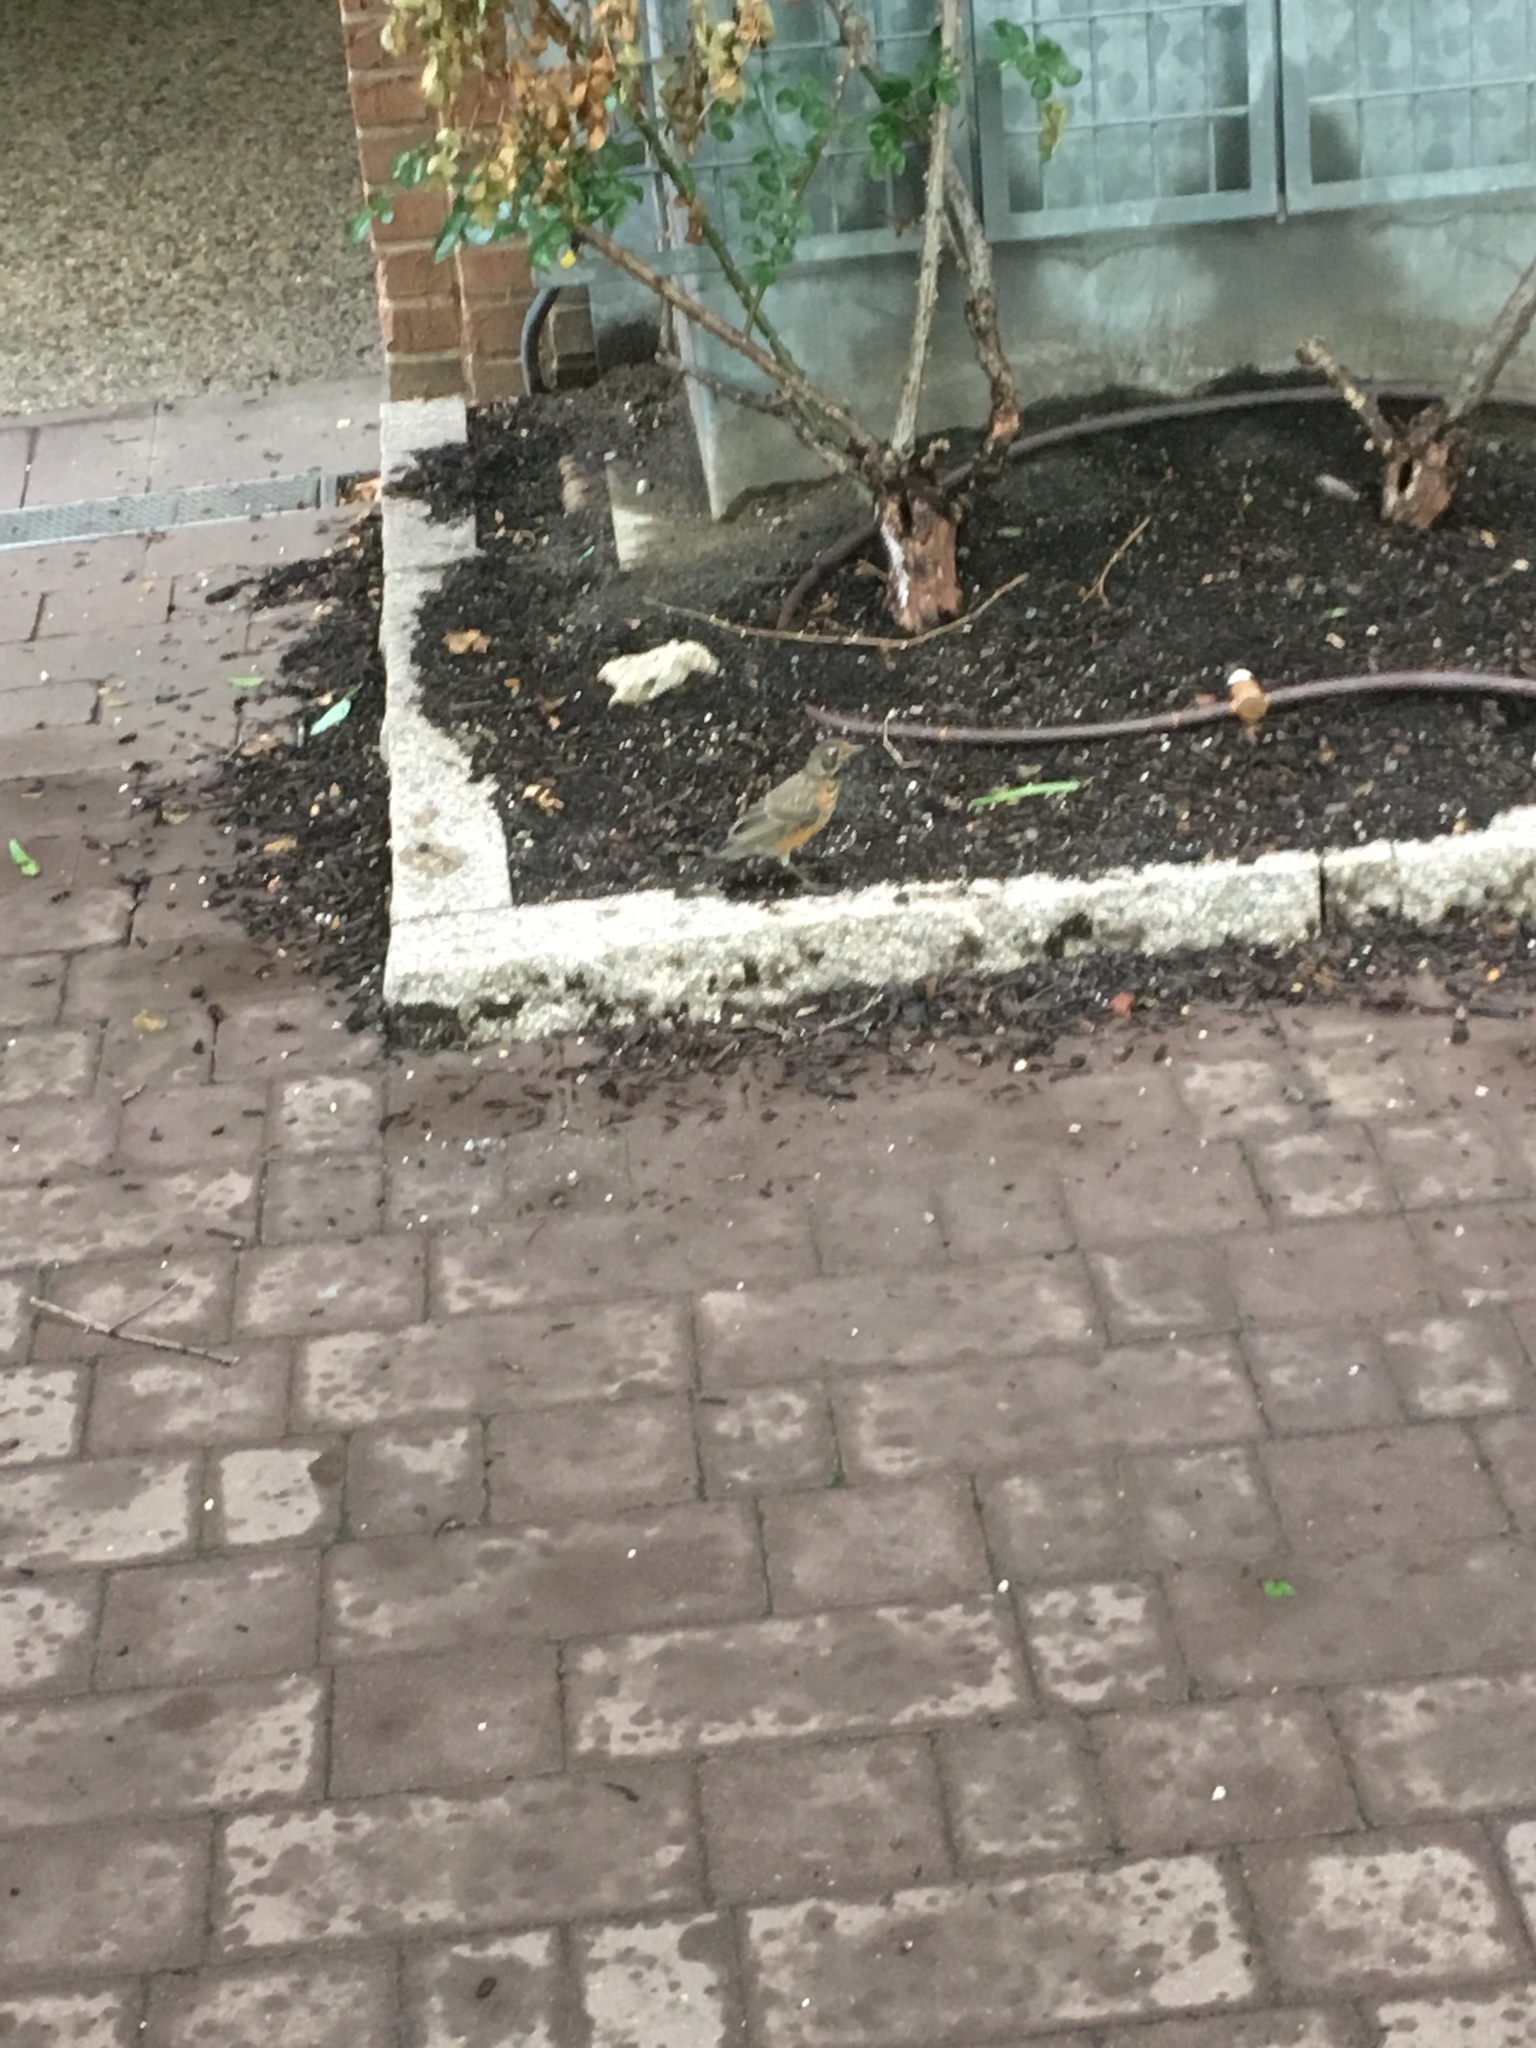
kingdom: Animalia
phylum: Chordata
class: Aves
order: Passeriformes
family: Turdidae
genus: Turdus
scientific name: Turdus migratorius
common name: American robin
